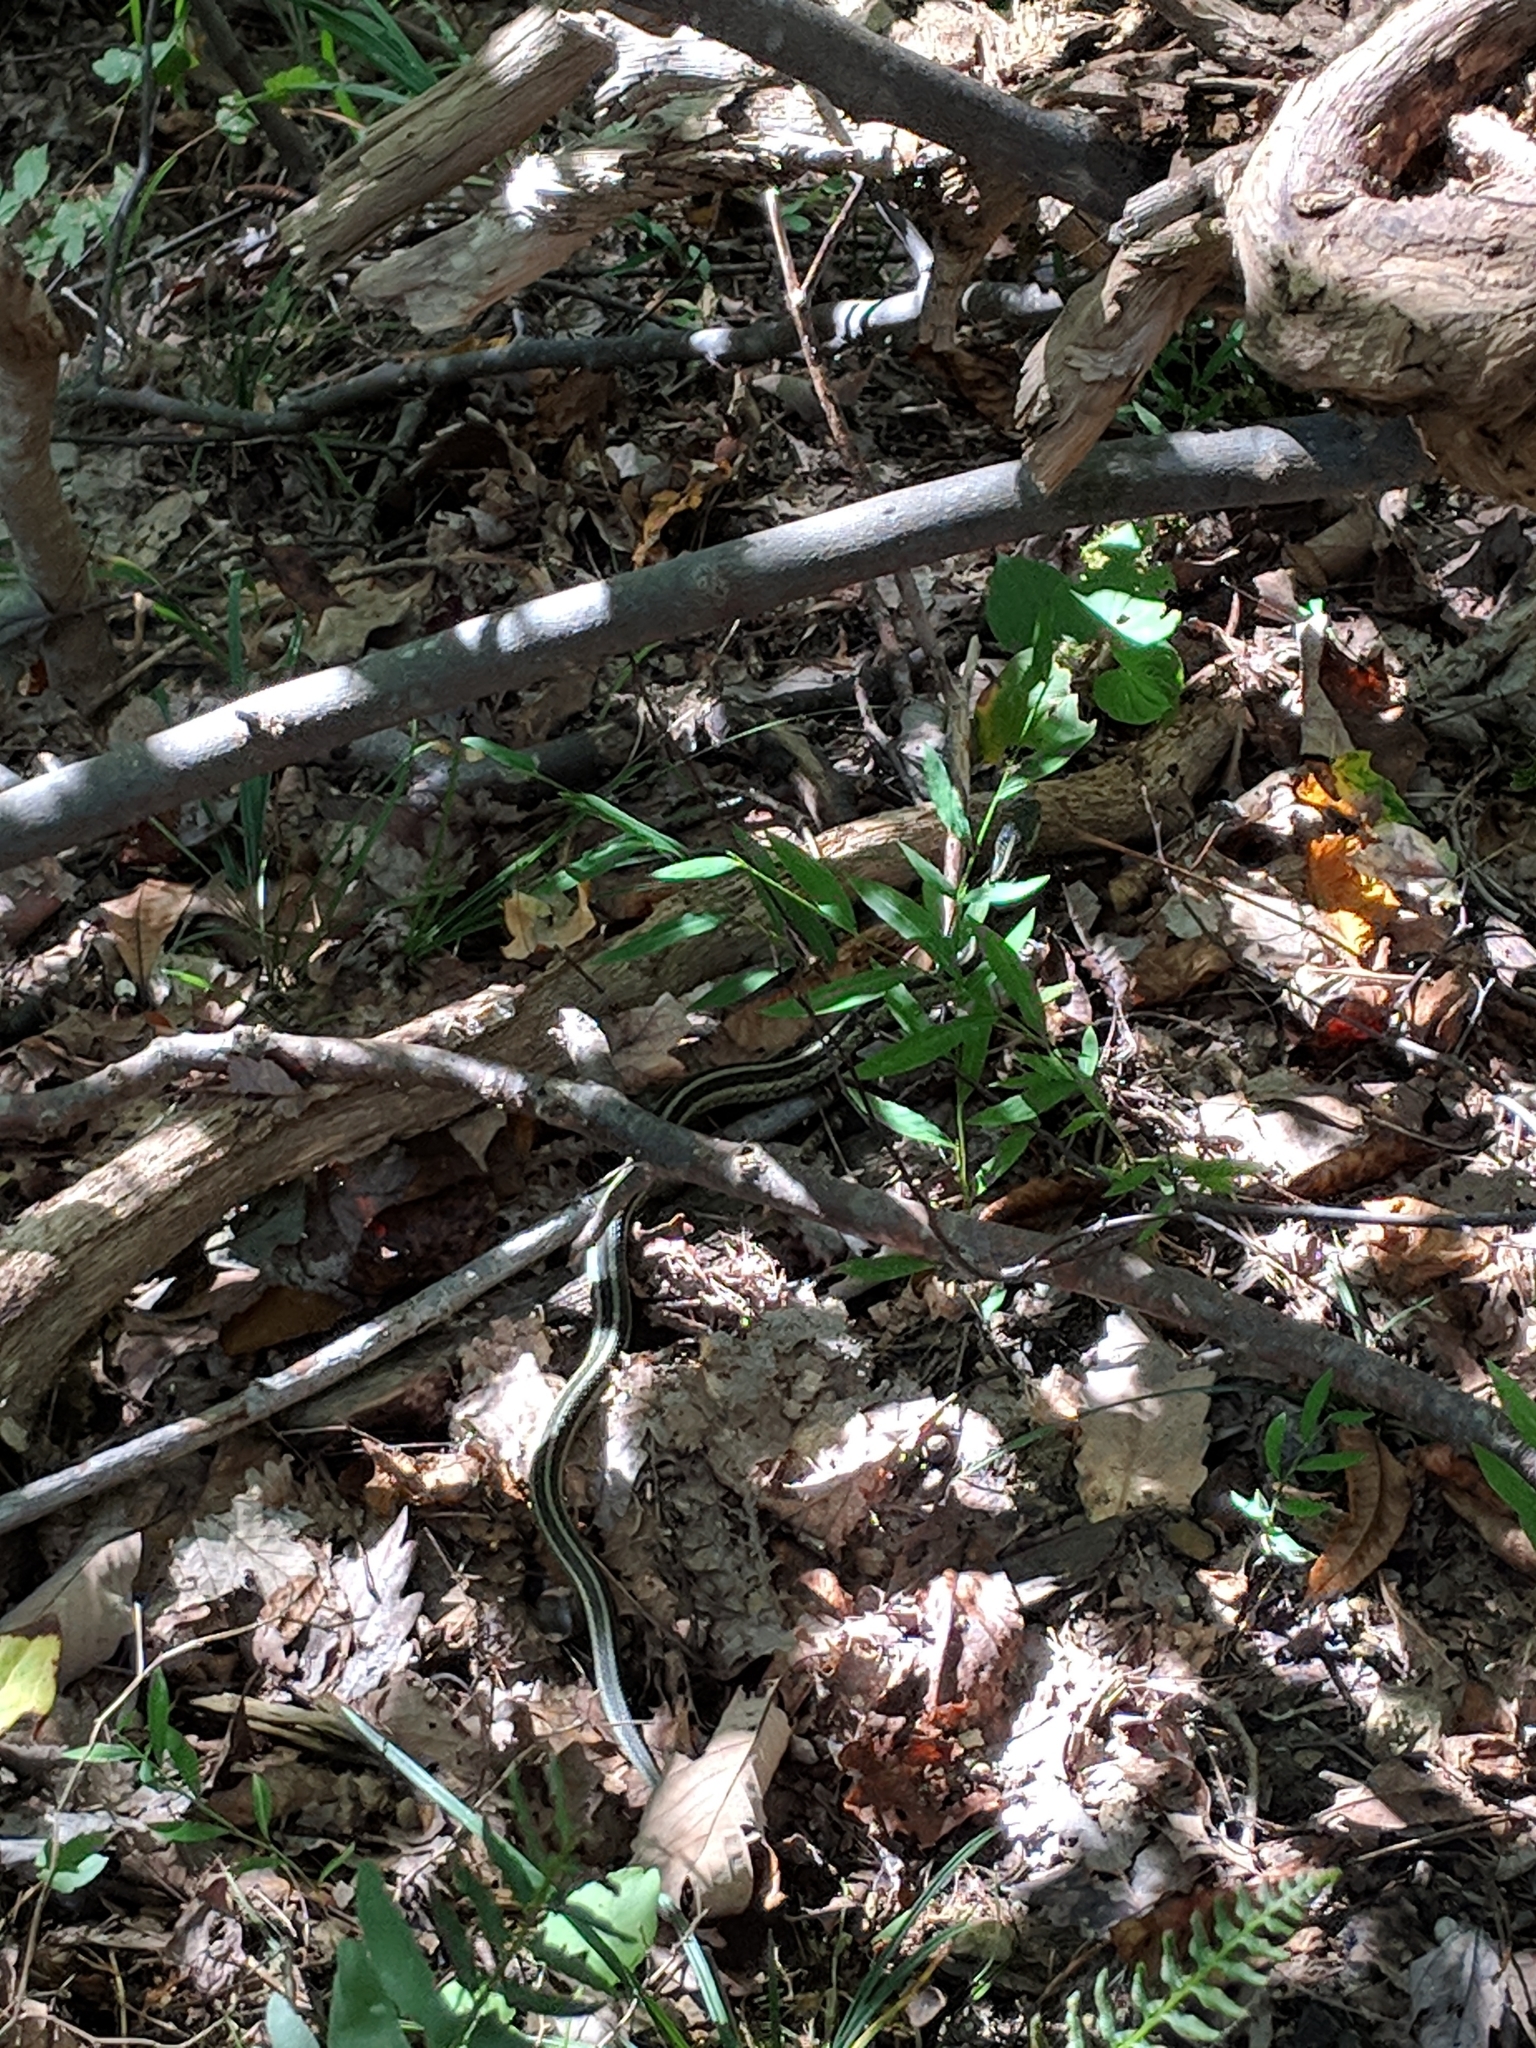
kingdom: Animalia
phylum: Chordata
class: Squamata
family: Colubridae
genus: Thamnophis
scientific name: Thamnophis sirtalis
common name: Common garter snake
